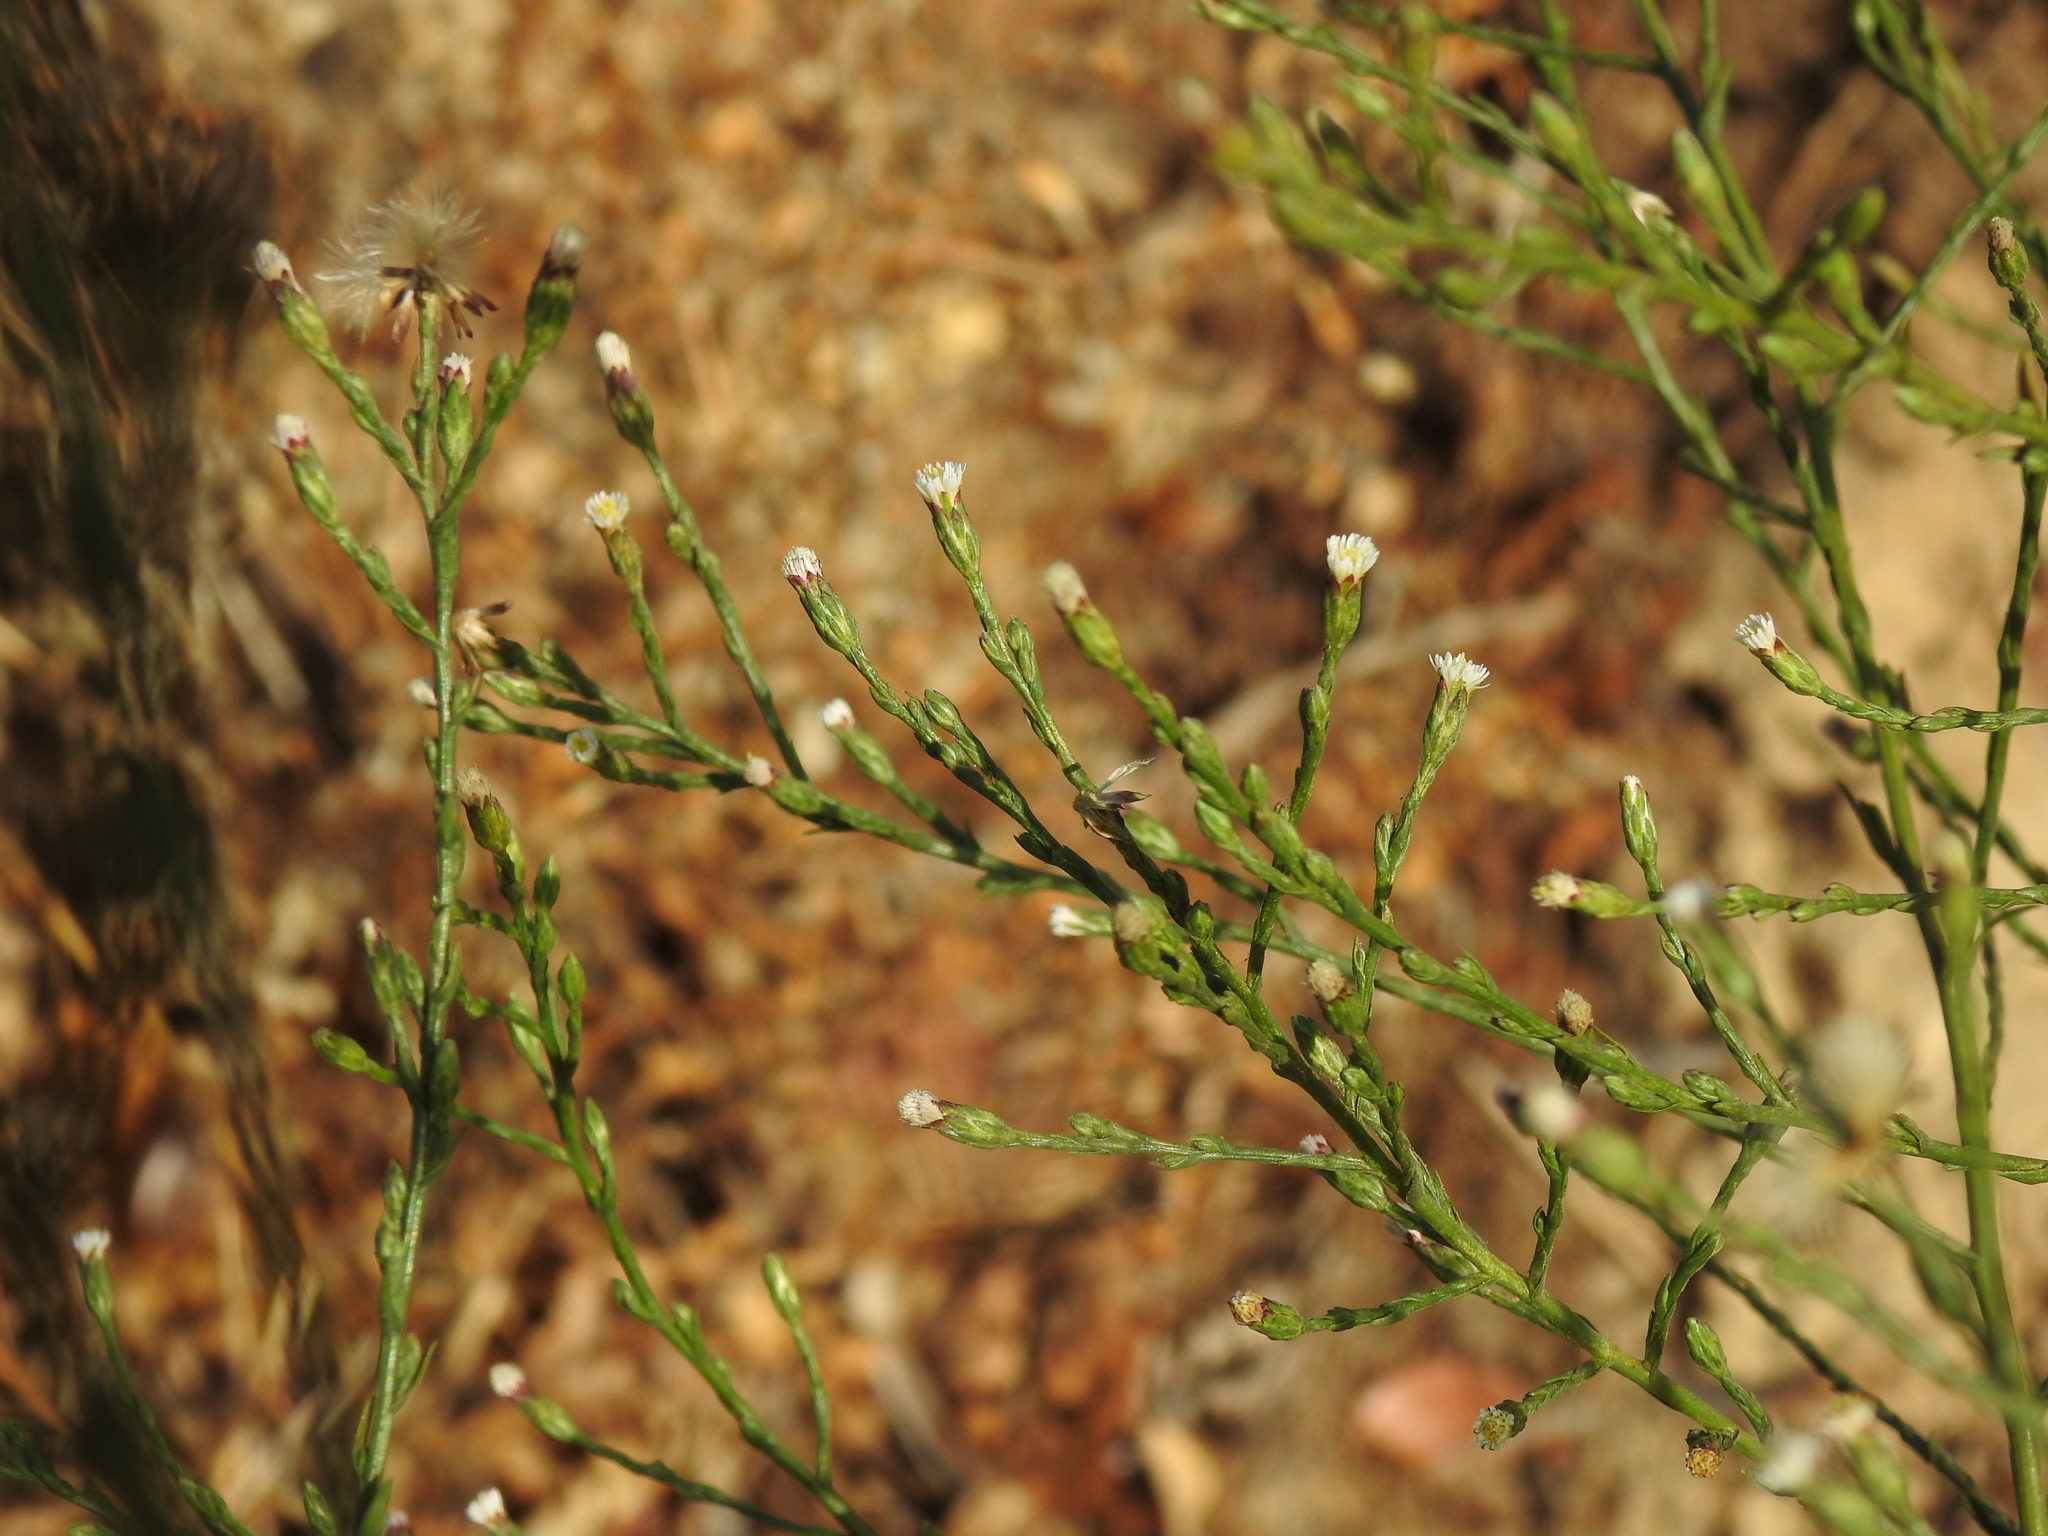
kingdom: Plantae
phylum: Tracheophyta
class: Magnoliopsida
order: Asterales
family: Asteraceae
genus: Symphyotrichum
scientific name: Symphyotrichum squamatum
